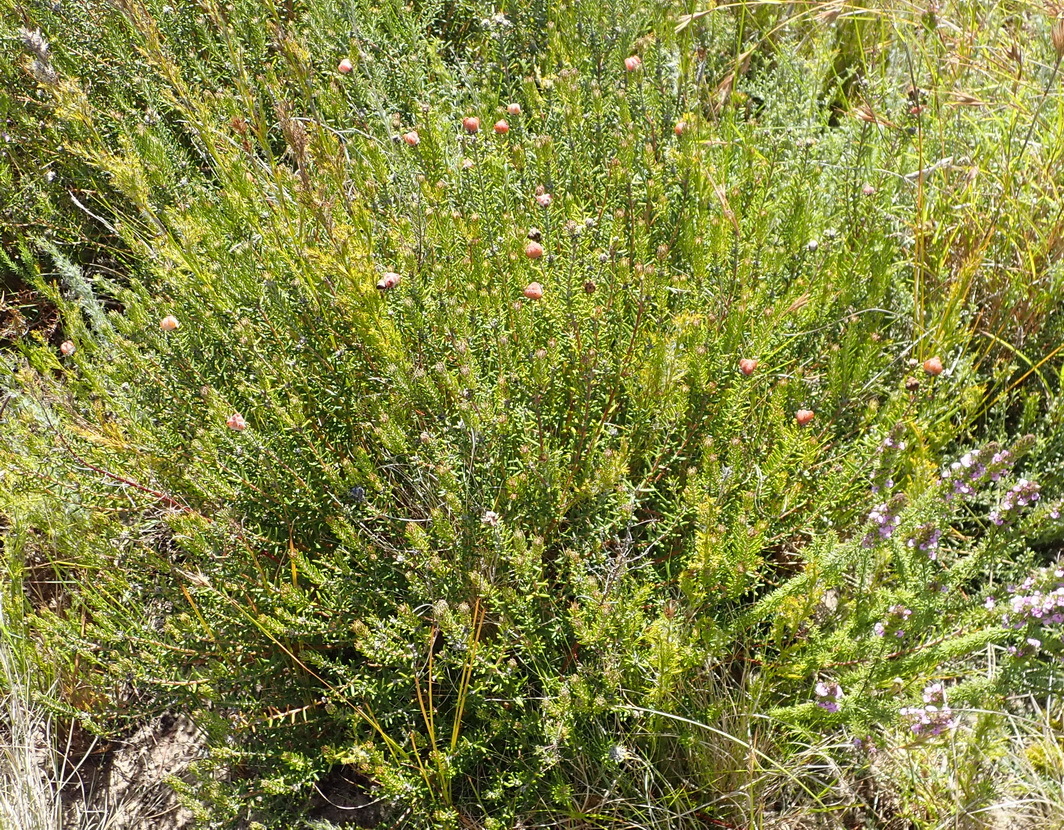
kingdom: Plantae
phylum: Tracheophyta
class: Magnoliopsida
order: Rosales
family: Rhamnaceae
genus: Trichocephalus
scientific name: Trichocephalus stipularis
